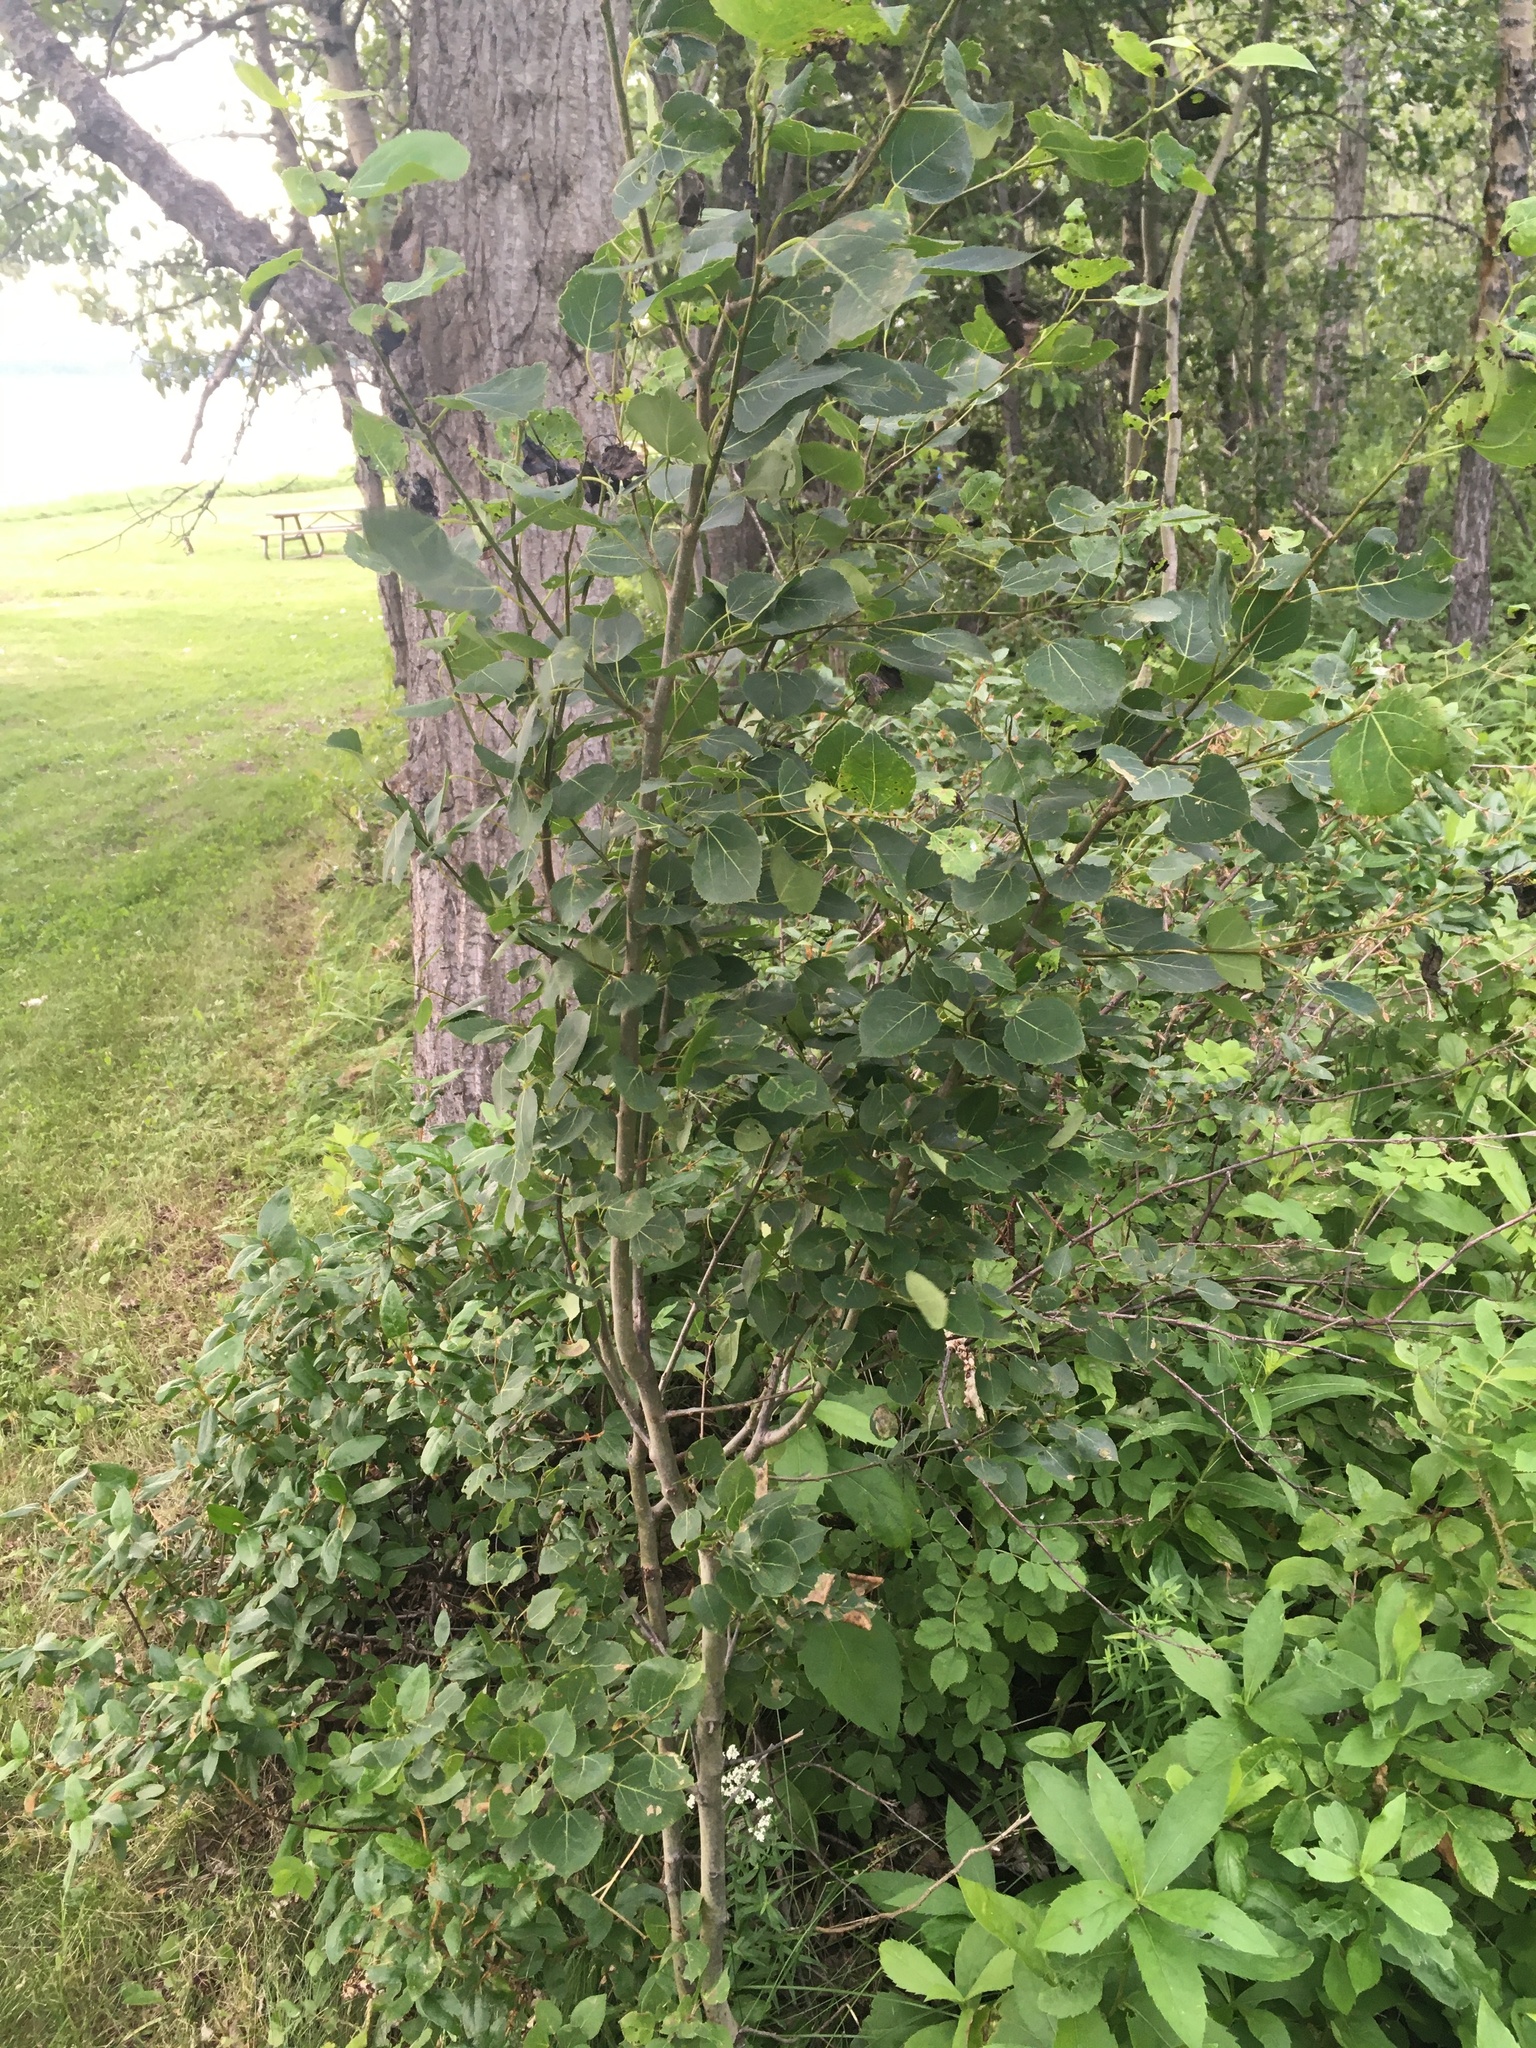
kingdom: Plantae
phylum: Tracheophyta
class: Magnoliopsida
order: Malpighiales
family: Salicaceae
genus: Populus
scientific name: Populus tremuloides
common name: Quaking aspen
